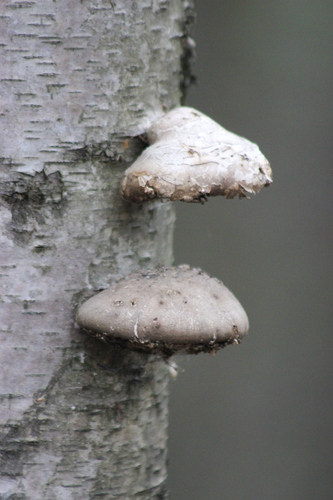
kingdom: Fungi
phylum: Basidiomycota
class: Agaricomycetes
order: Polyporales
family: Fomitopsidaceae
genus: Fomitopsis
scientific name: Fomitopsis betulina
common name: Birch polypore
